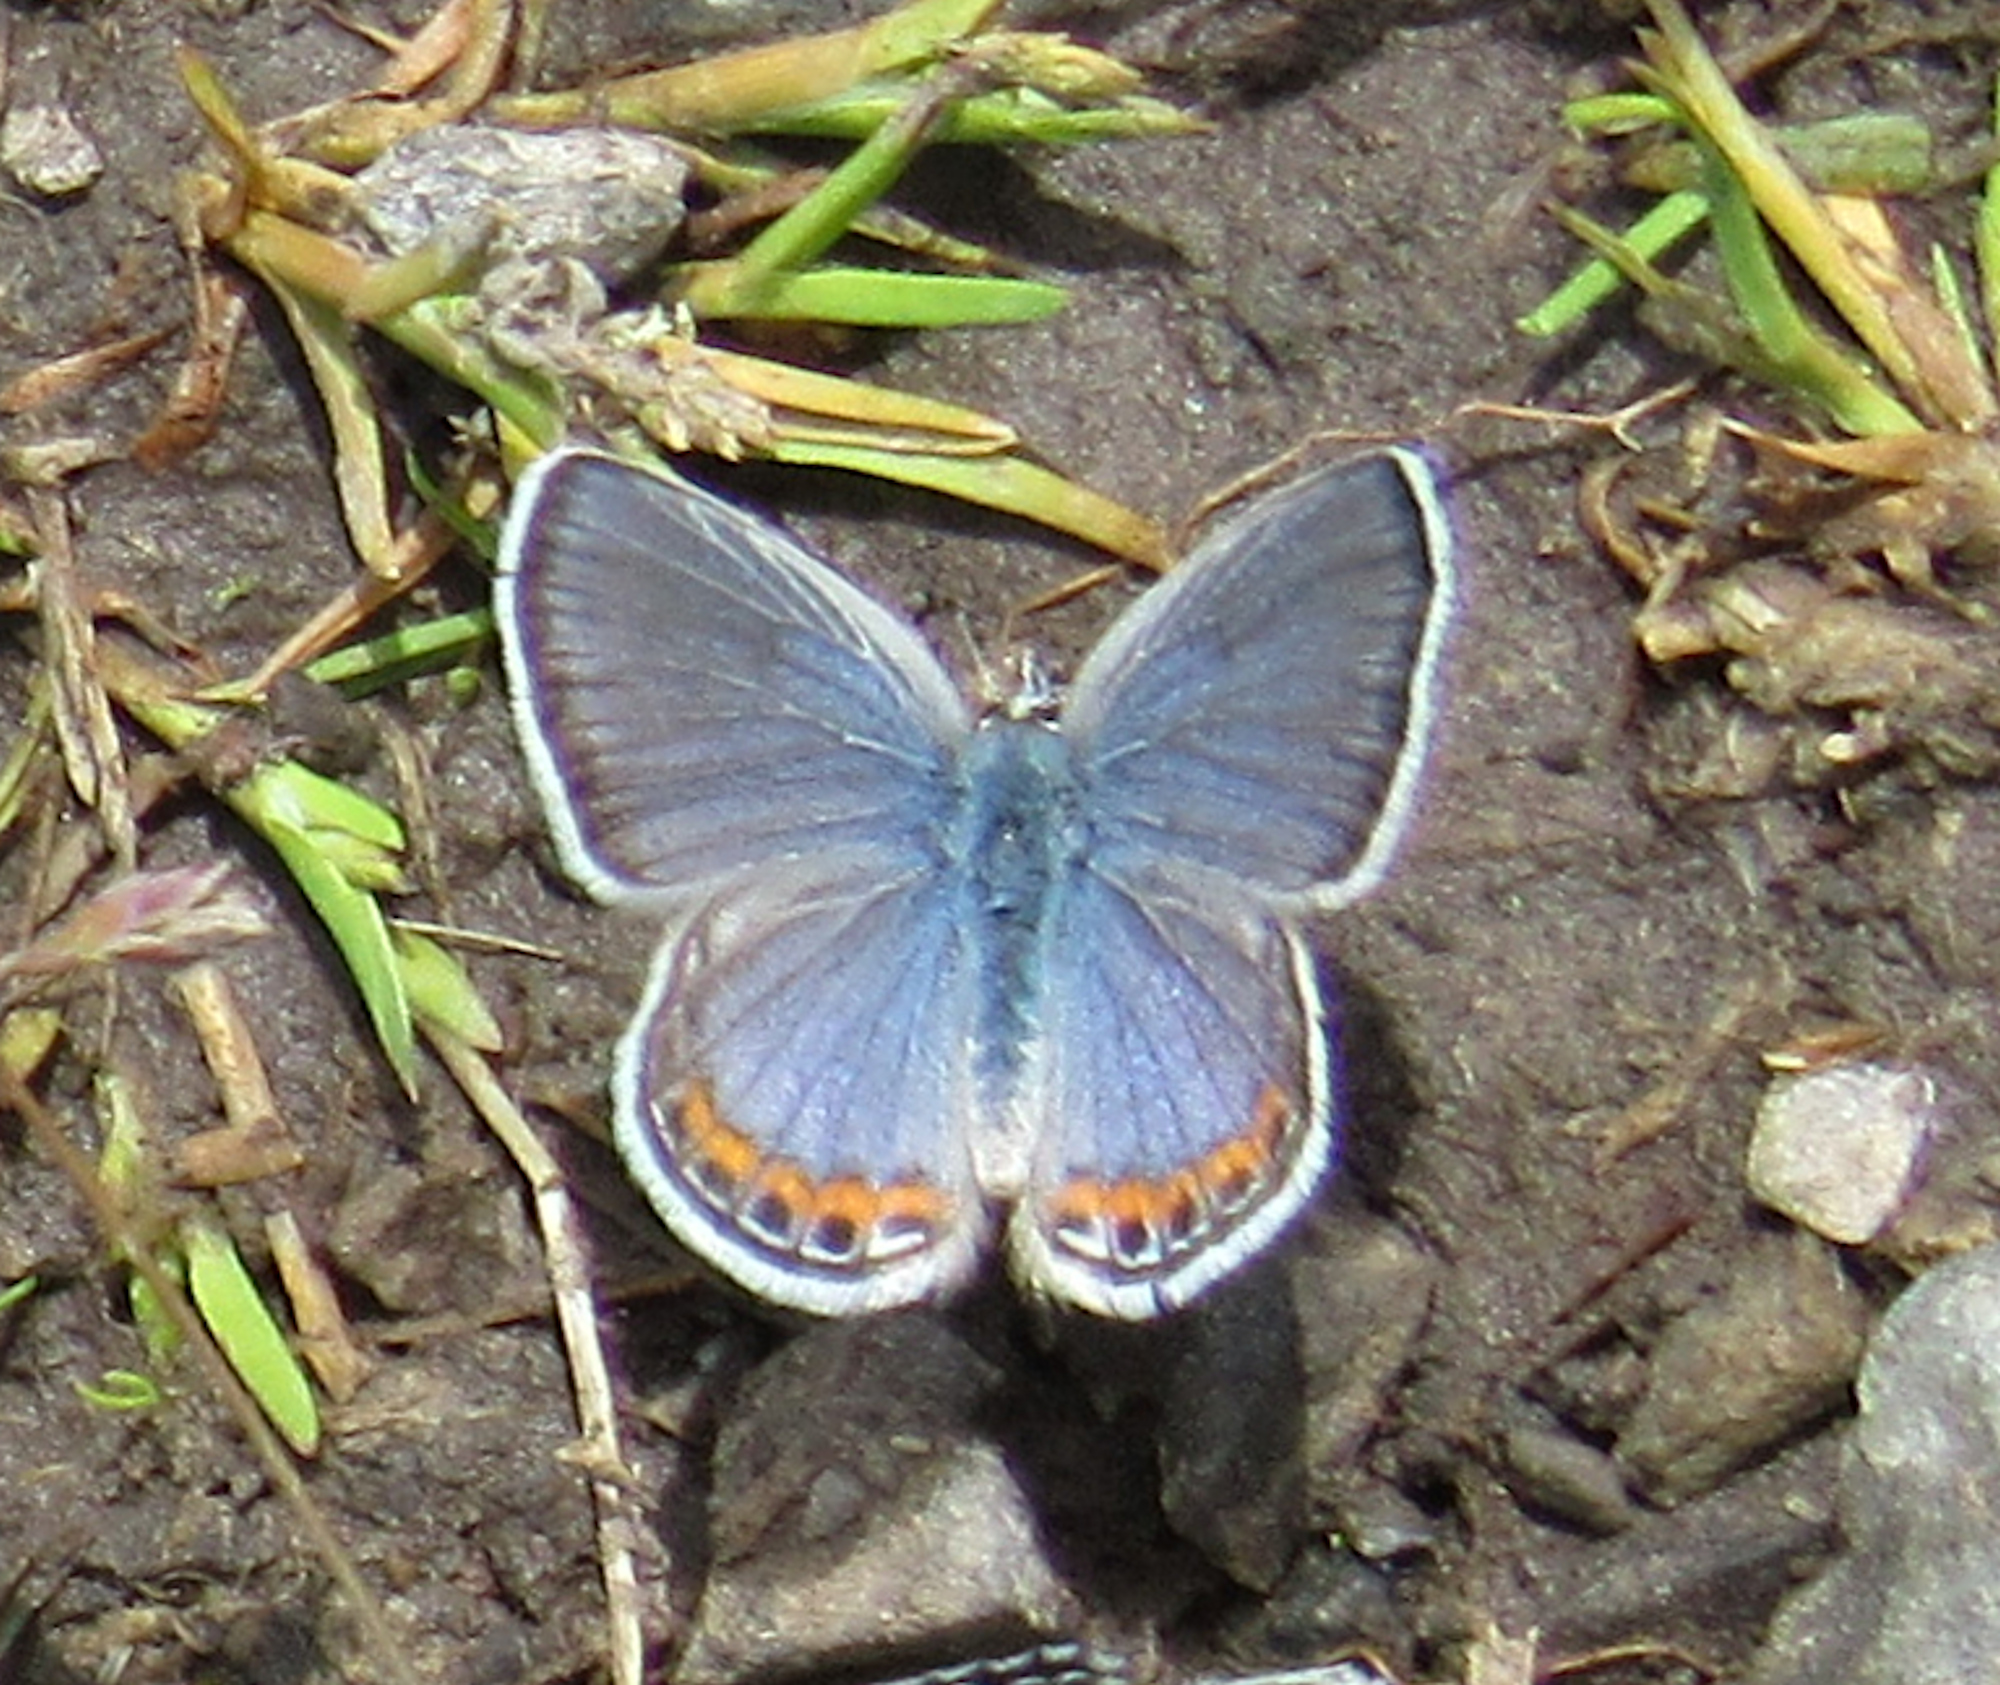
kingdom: Animalia
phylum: Arthropoda
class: Insecta
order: Lepidoptera
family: Lycaenidae
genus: Icaricia
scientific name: Icaricia lupini
